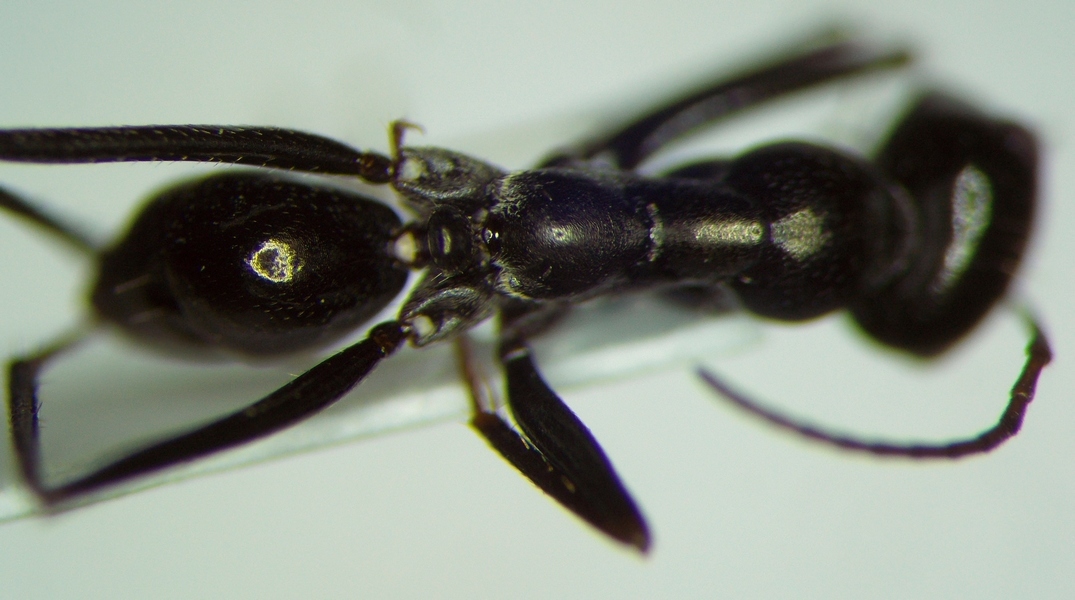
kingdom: Animalia
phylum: Arthropoda
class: Insecta
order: Hymenoptera
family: Formicidae
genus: Cataglyphis
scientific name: Cataglyphis aenescens
